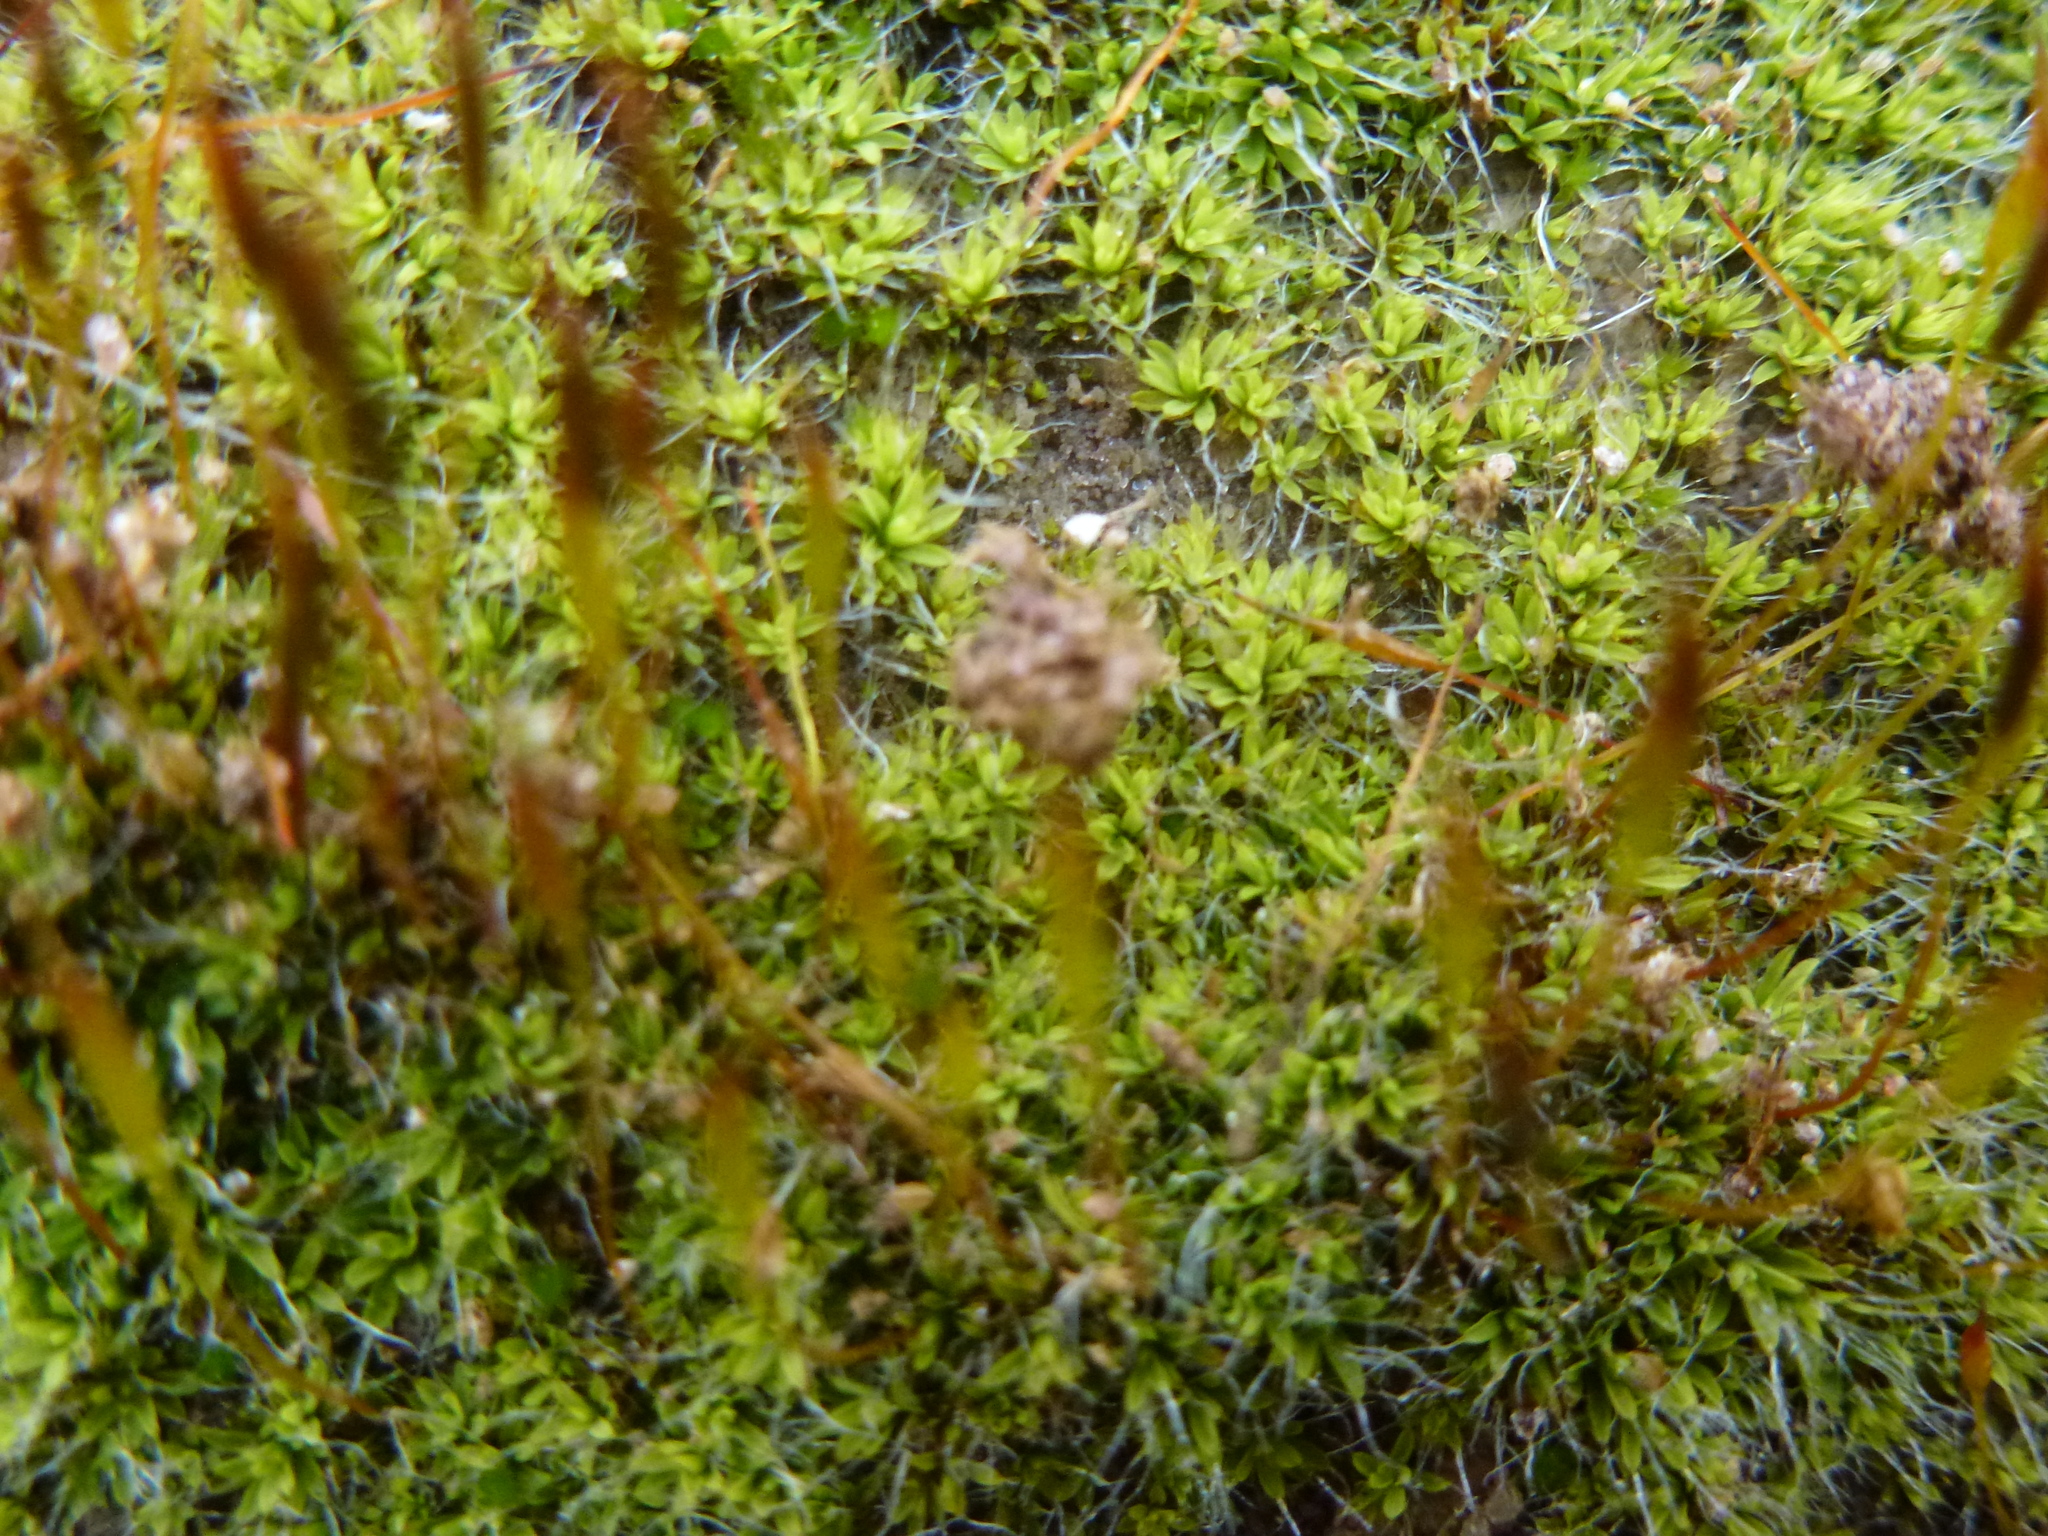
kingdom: Plantae
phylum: Bryophyta
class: Bryopsida
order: Pottiales
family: Pottiaceae
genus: Tortula
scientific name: Tortula muralis
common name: Wall screw-moss
